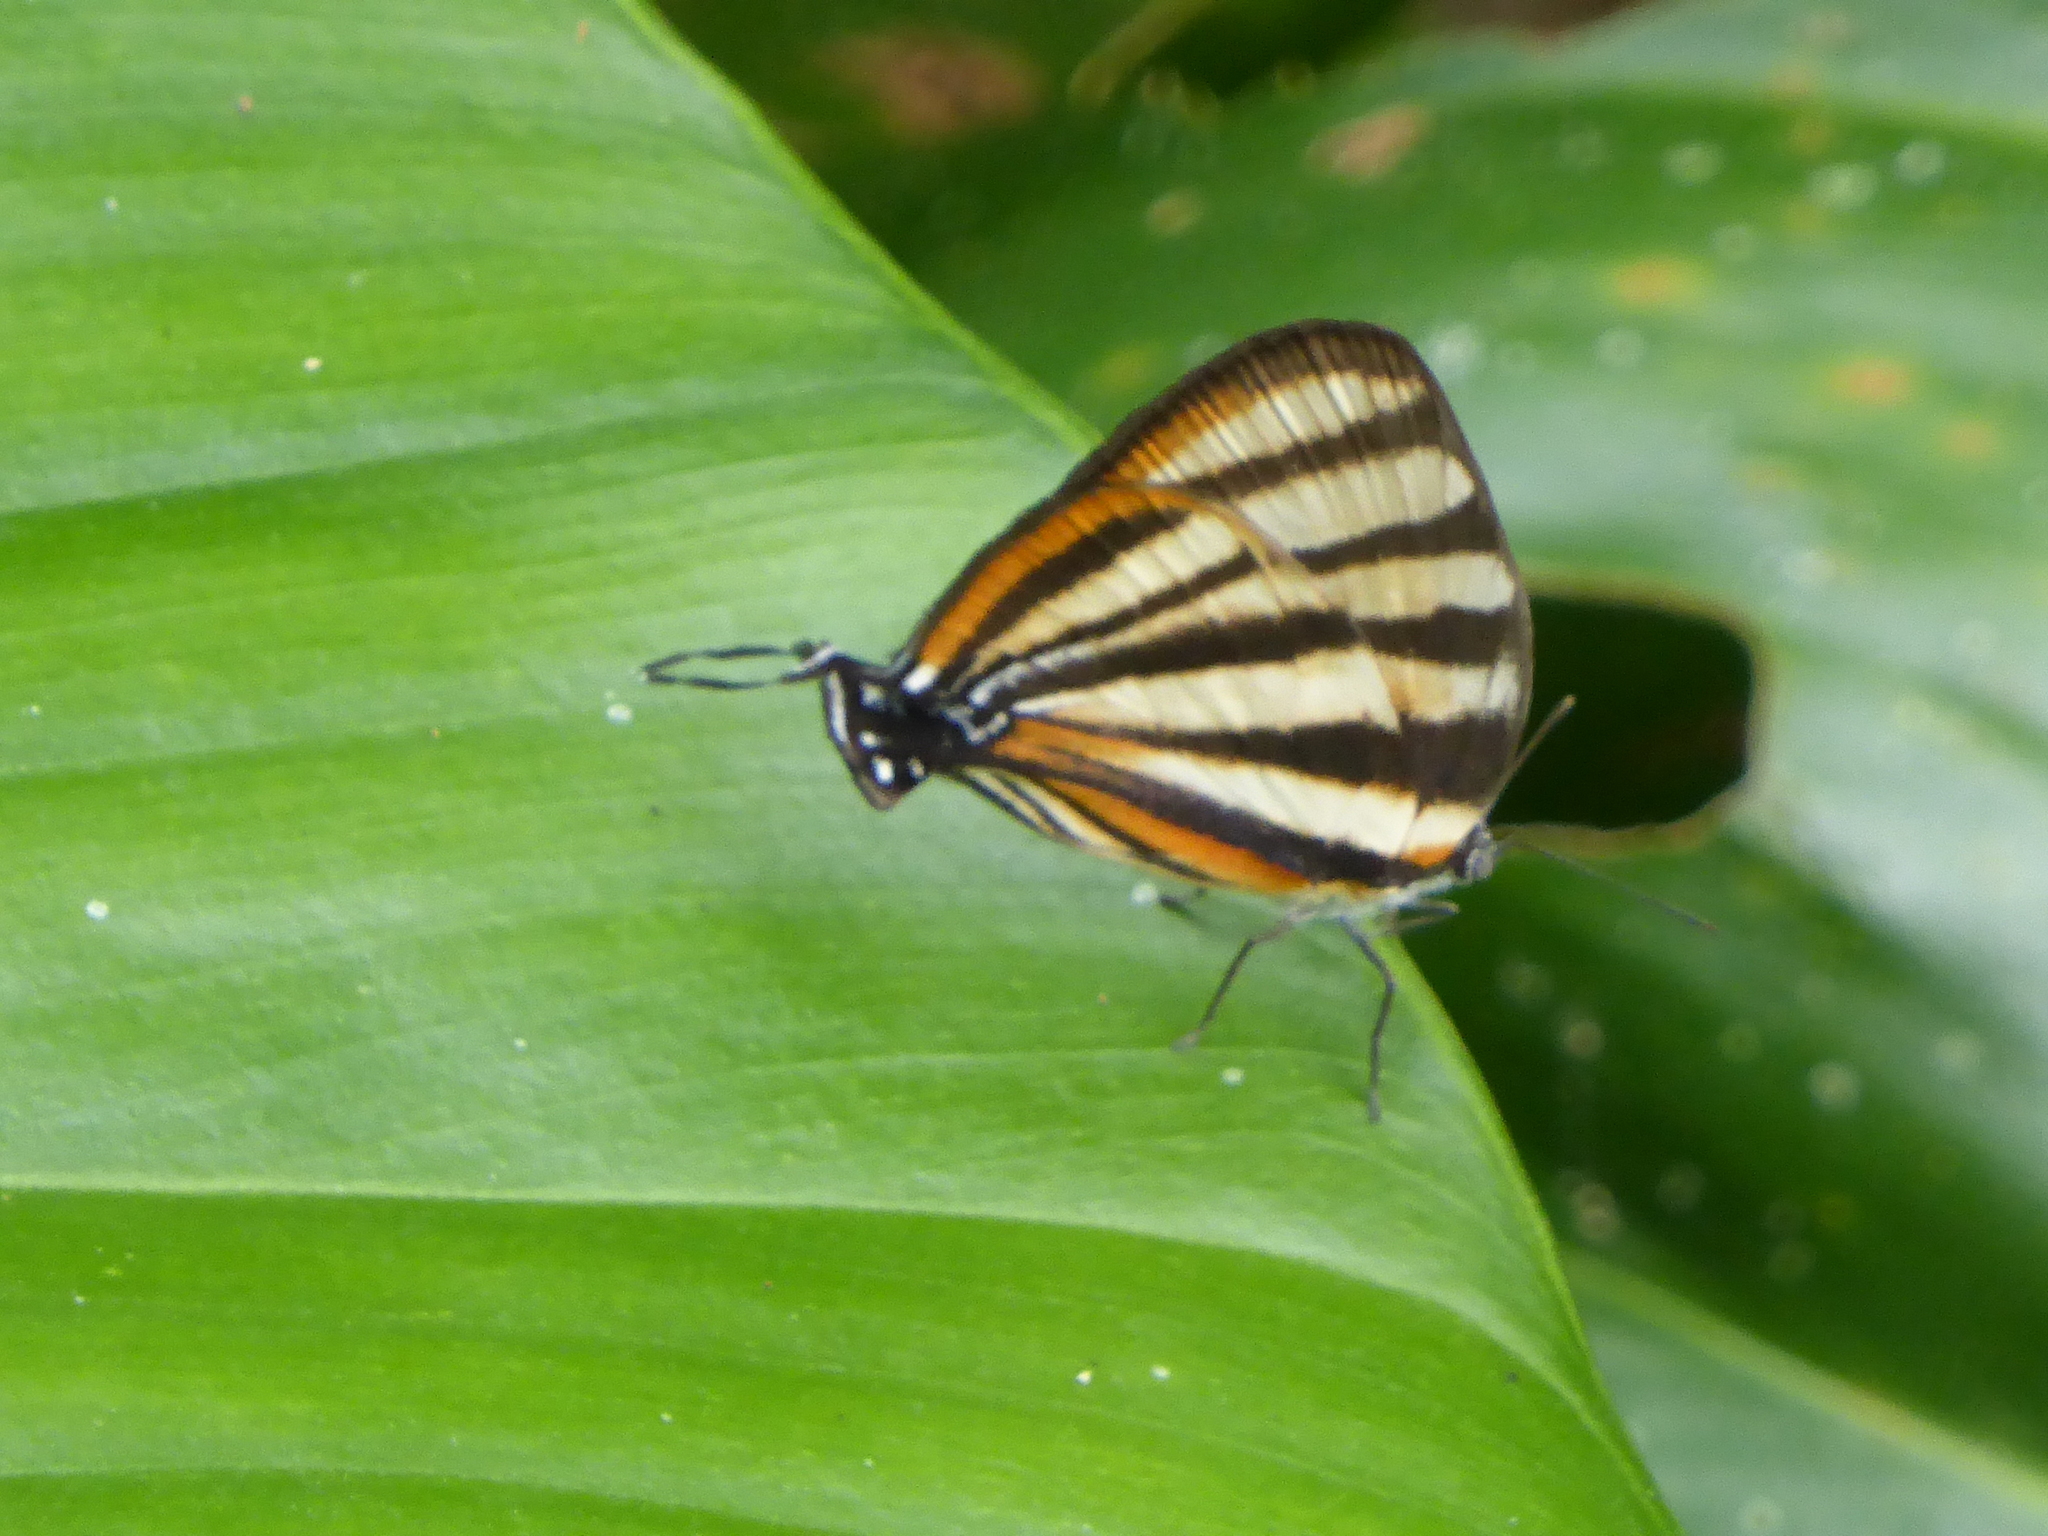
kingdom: Animalia
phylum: Arthropoda
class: Insecta
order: Lepidoptera
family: Lycaenidae
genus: Arawacus
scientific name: Arawacus separata
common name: Separated stripestreak
